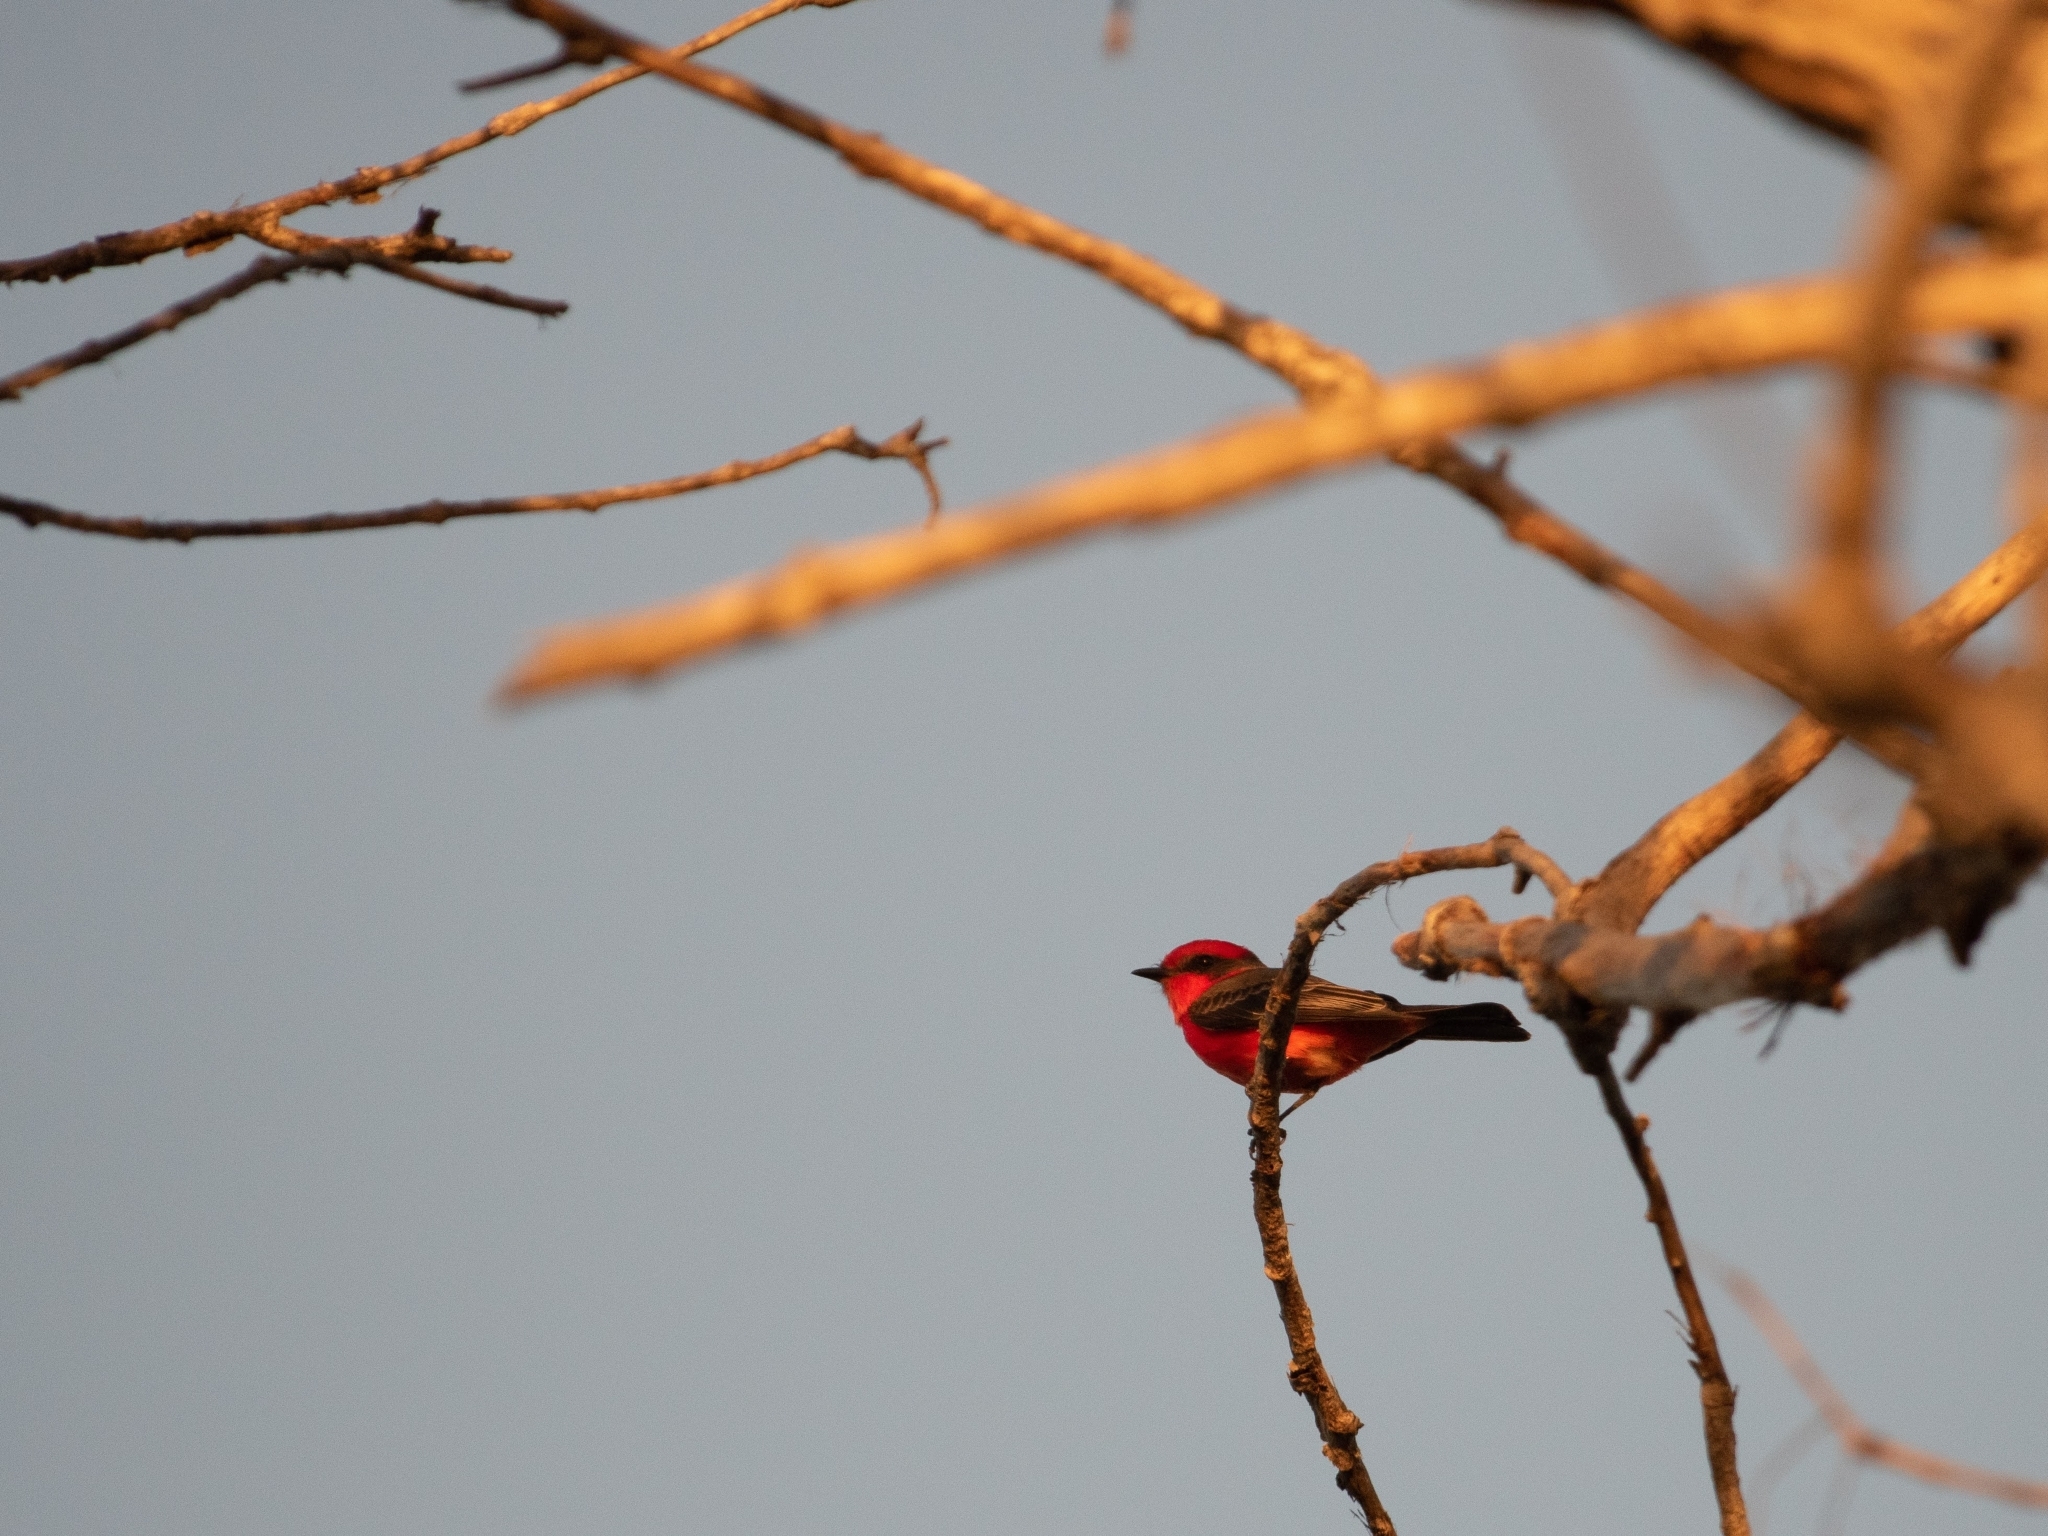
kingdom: Animalia
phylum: Chordata
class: Aves
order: Passeriformes
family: Tyrannidae
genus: Pyrocephalus
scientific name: Pyrocephalus rubinus
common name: Vermilion flycatcher
